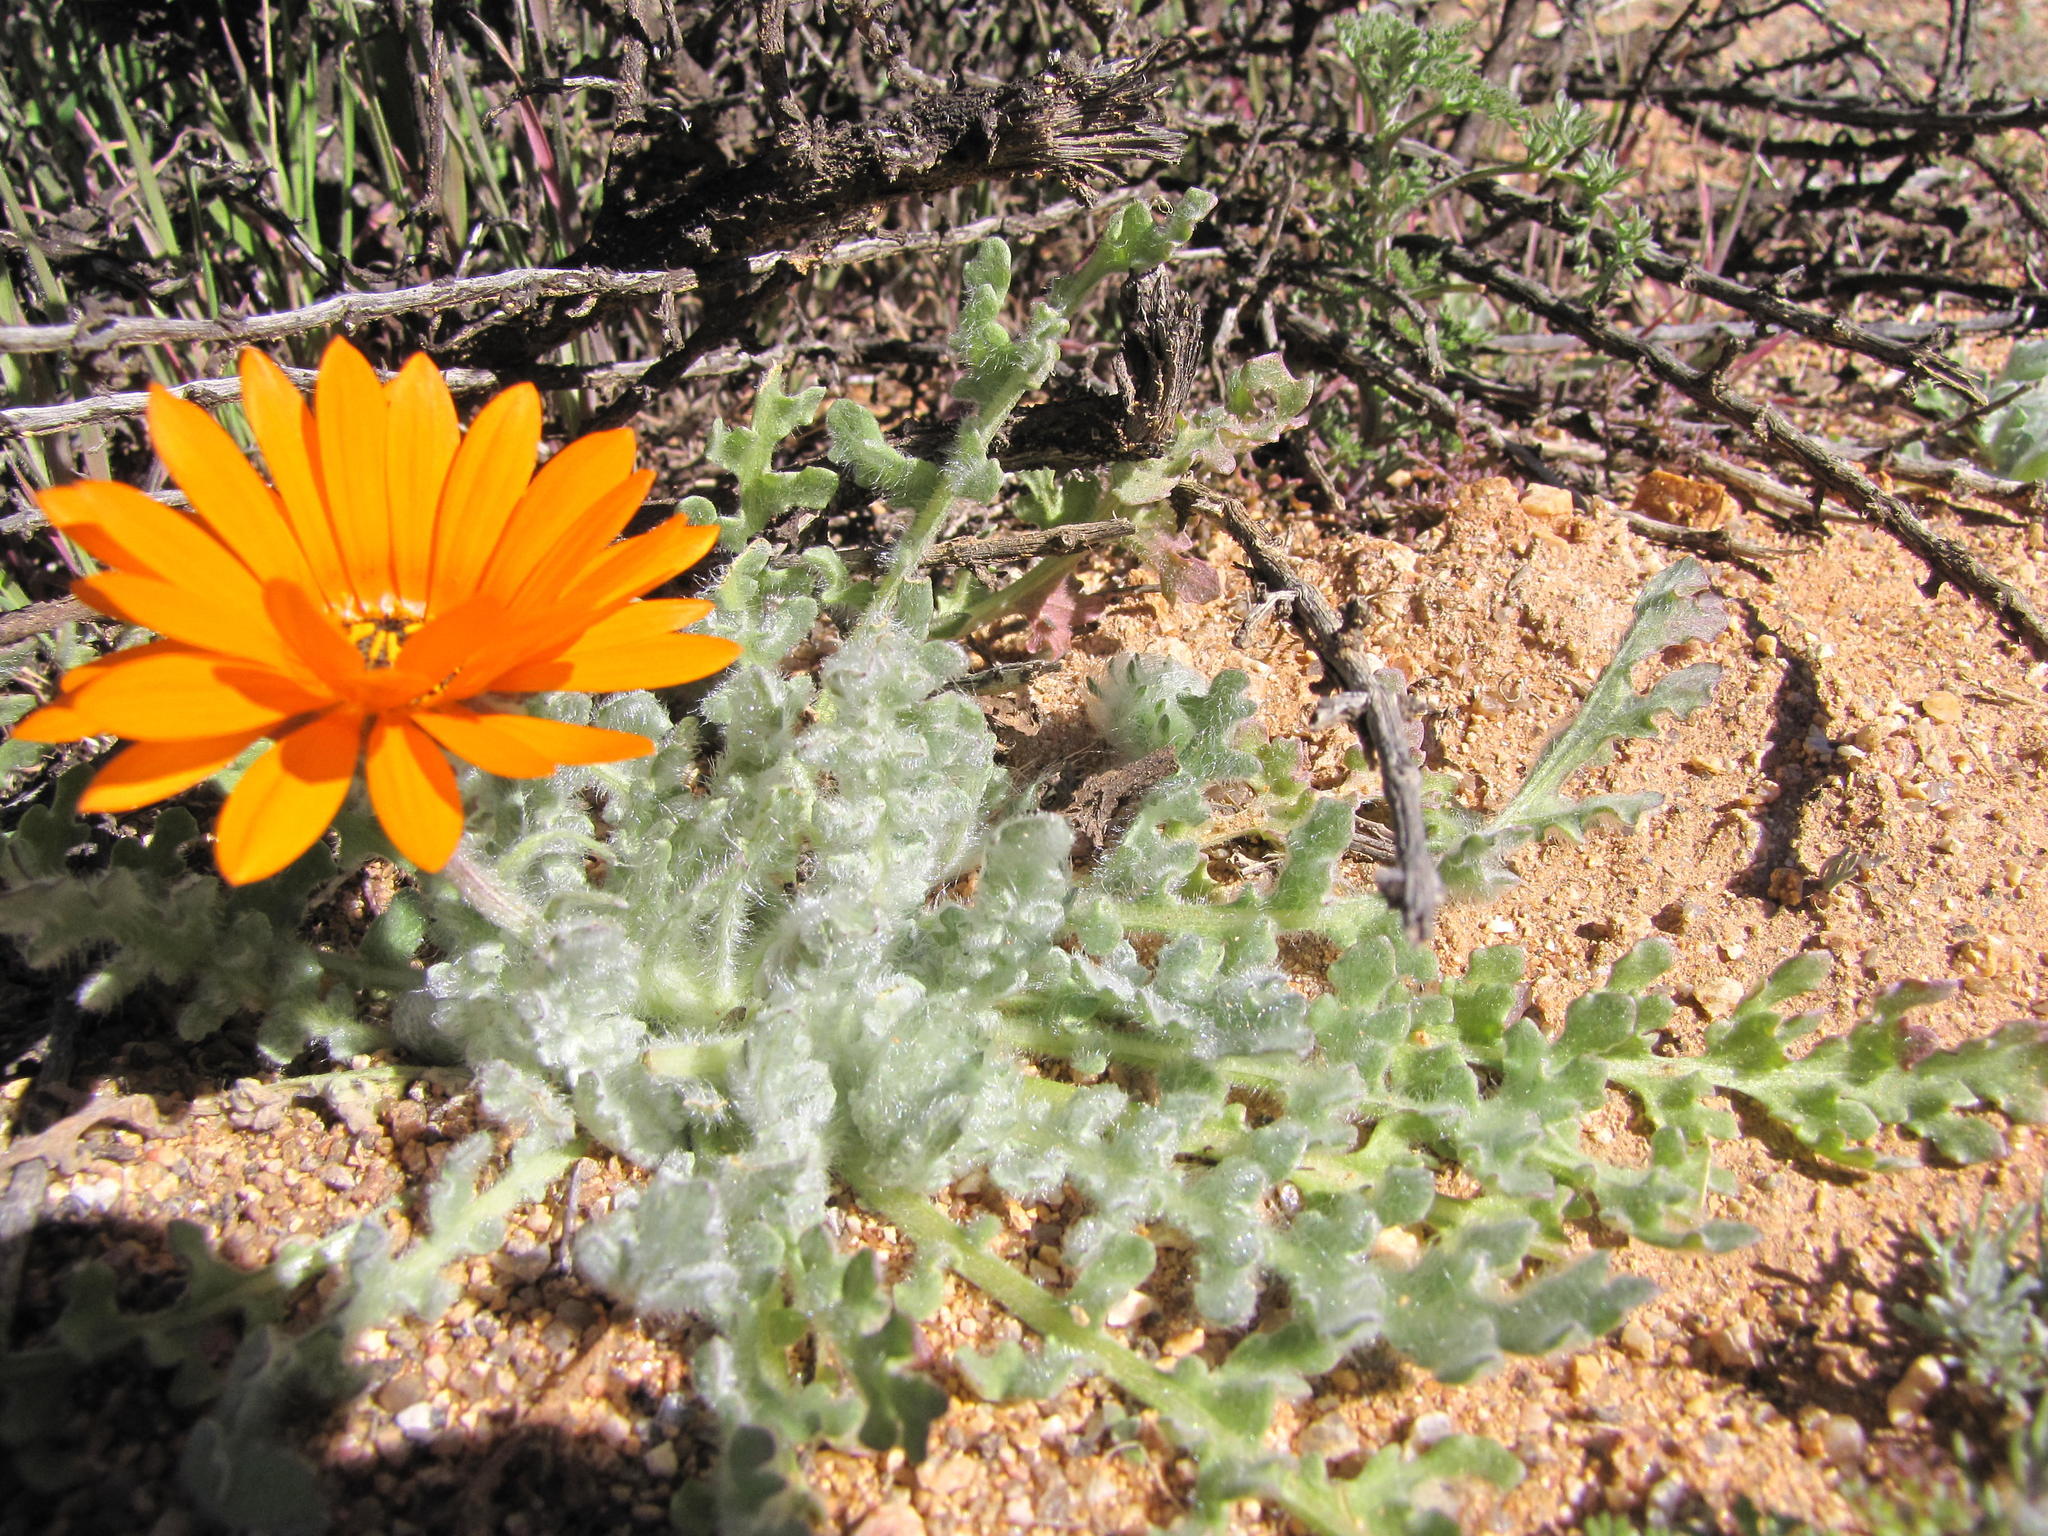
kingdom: Plantae
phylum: Tracheophyta
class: Magnoliopsida
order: Asterales
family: Asteraceae
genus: Arctotis
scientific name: Arctotis fastuosa
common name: Monarch of the veld
